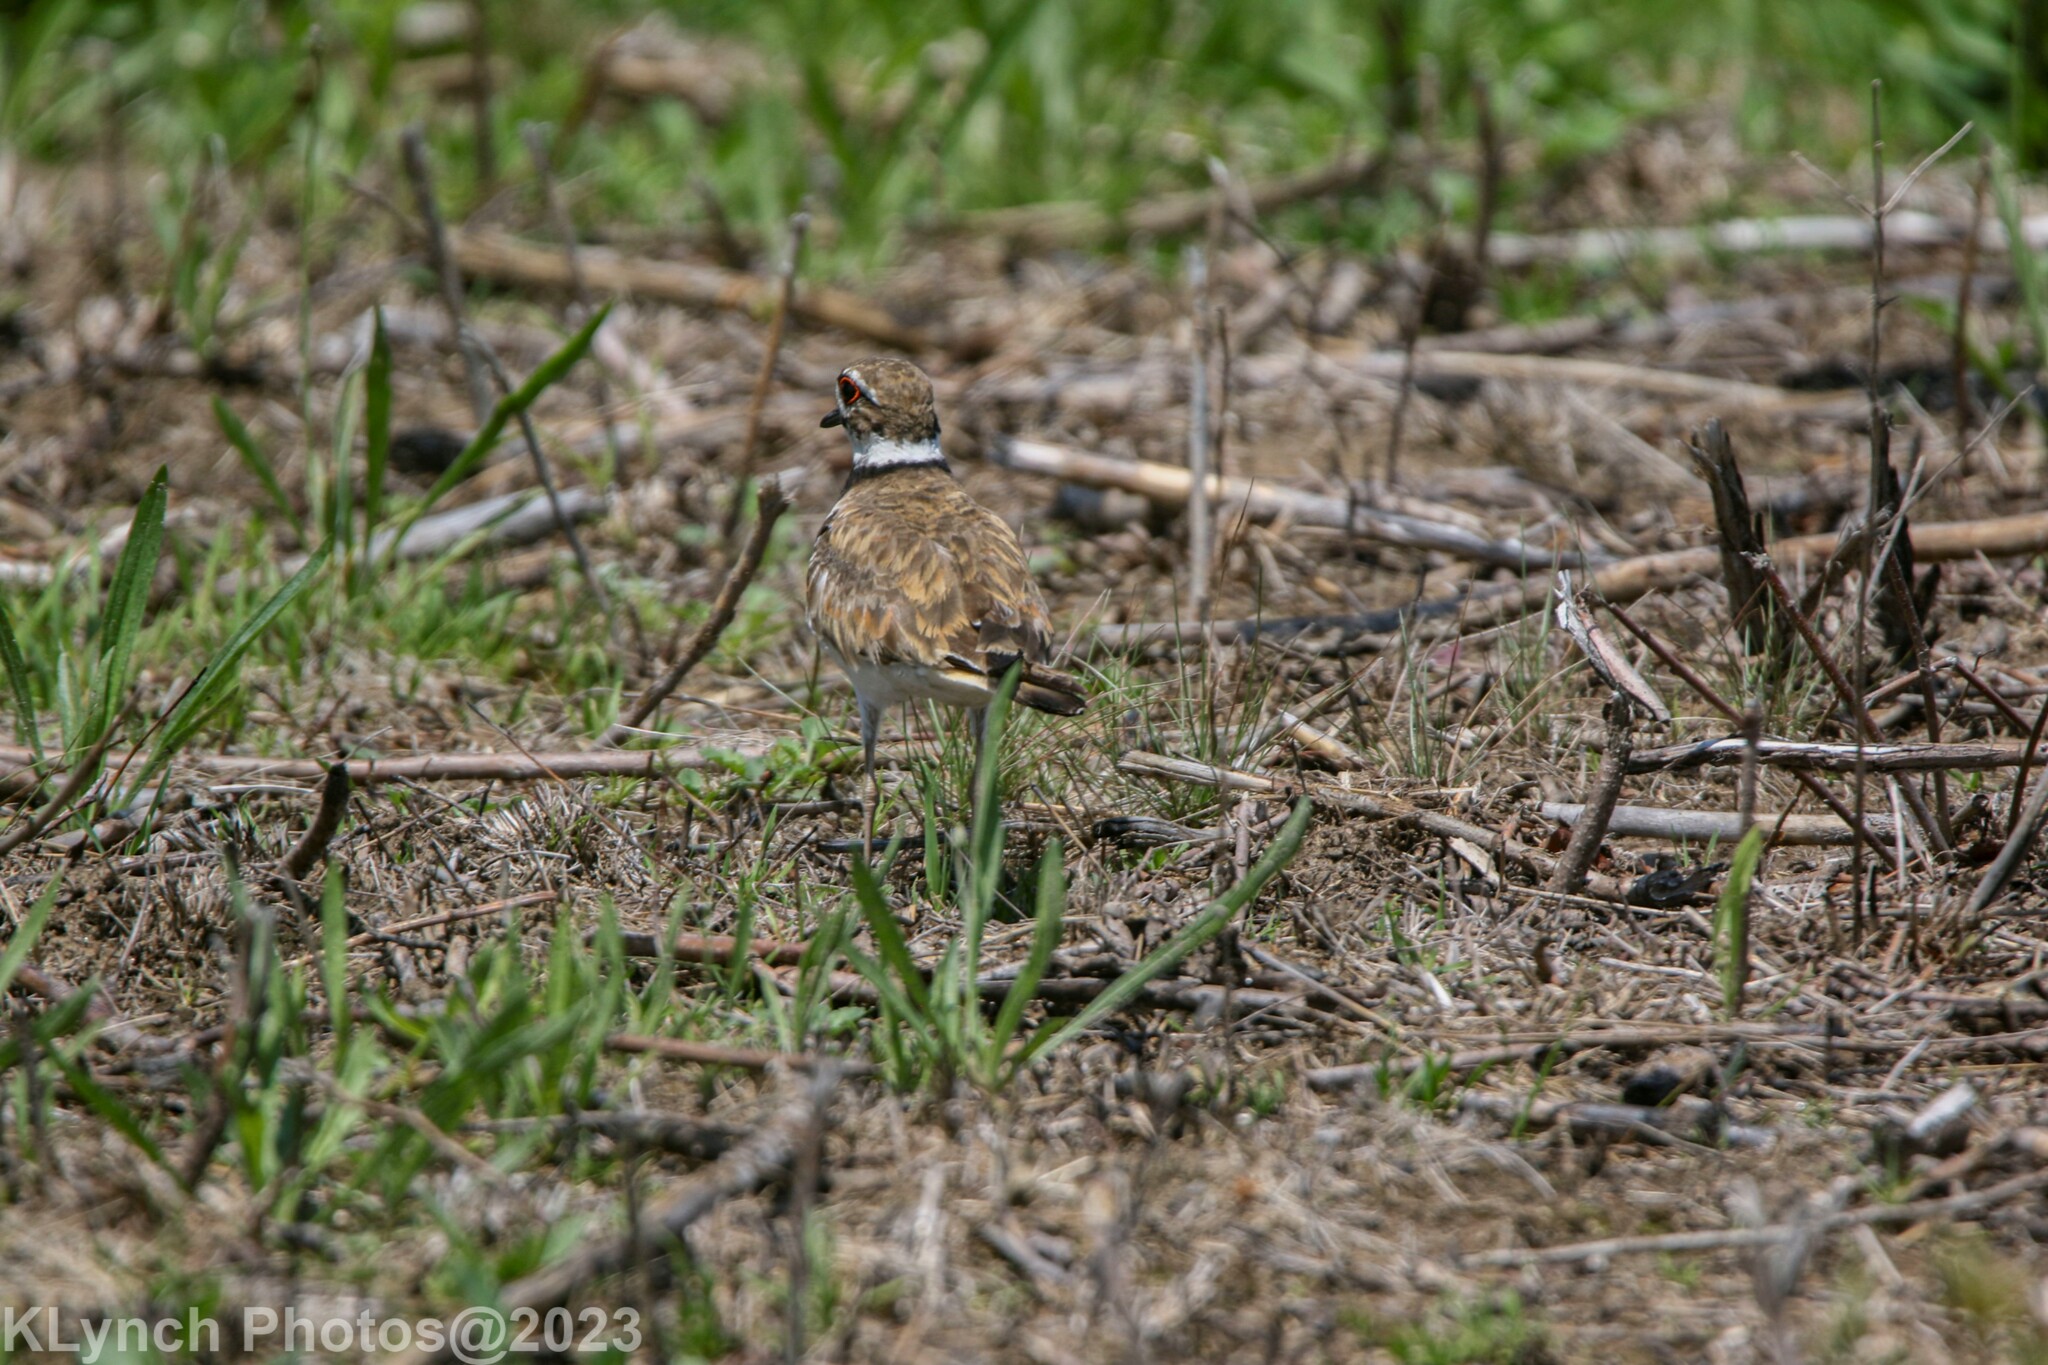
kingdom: Animalia
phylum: Chordata
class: Aves
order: Charadriiformes
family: Charadriidae
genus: Charadrius
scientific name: Charadrius vociferus
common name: Killdeer
